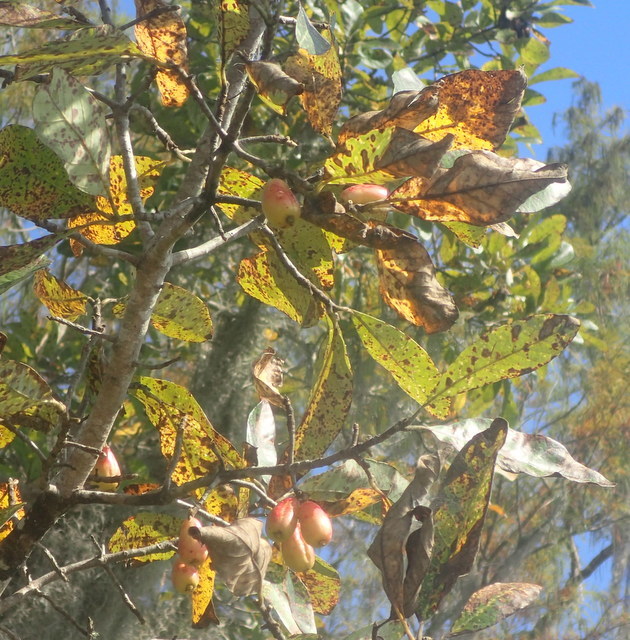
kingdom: Plantae
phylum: Tracheophyta
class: Magnoliopsida
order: Cornales
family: Nyssaceae
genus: Nyssa
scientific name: Nyssa ogeche
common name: Ogeechee tupelo
